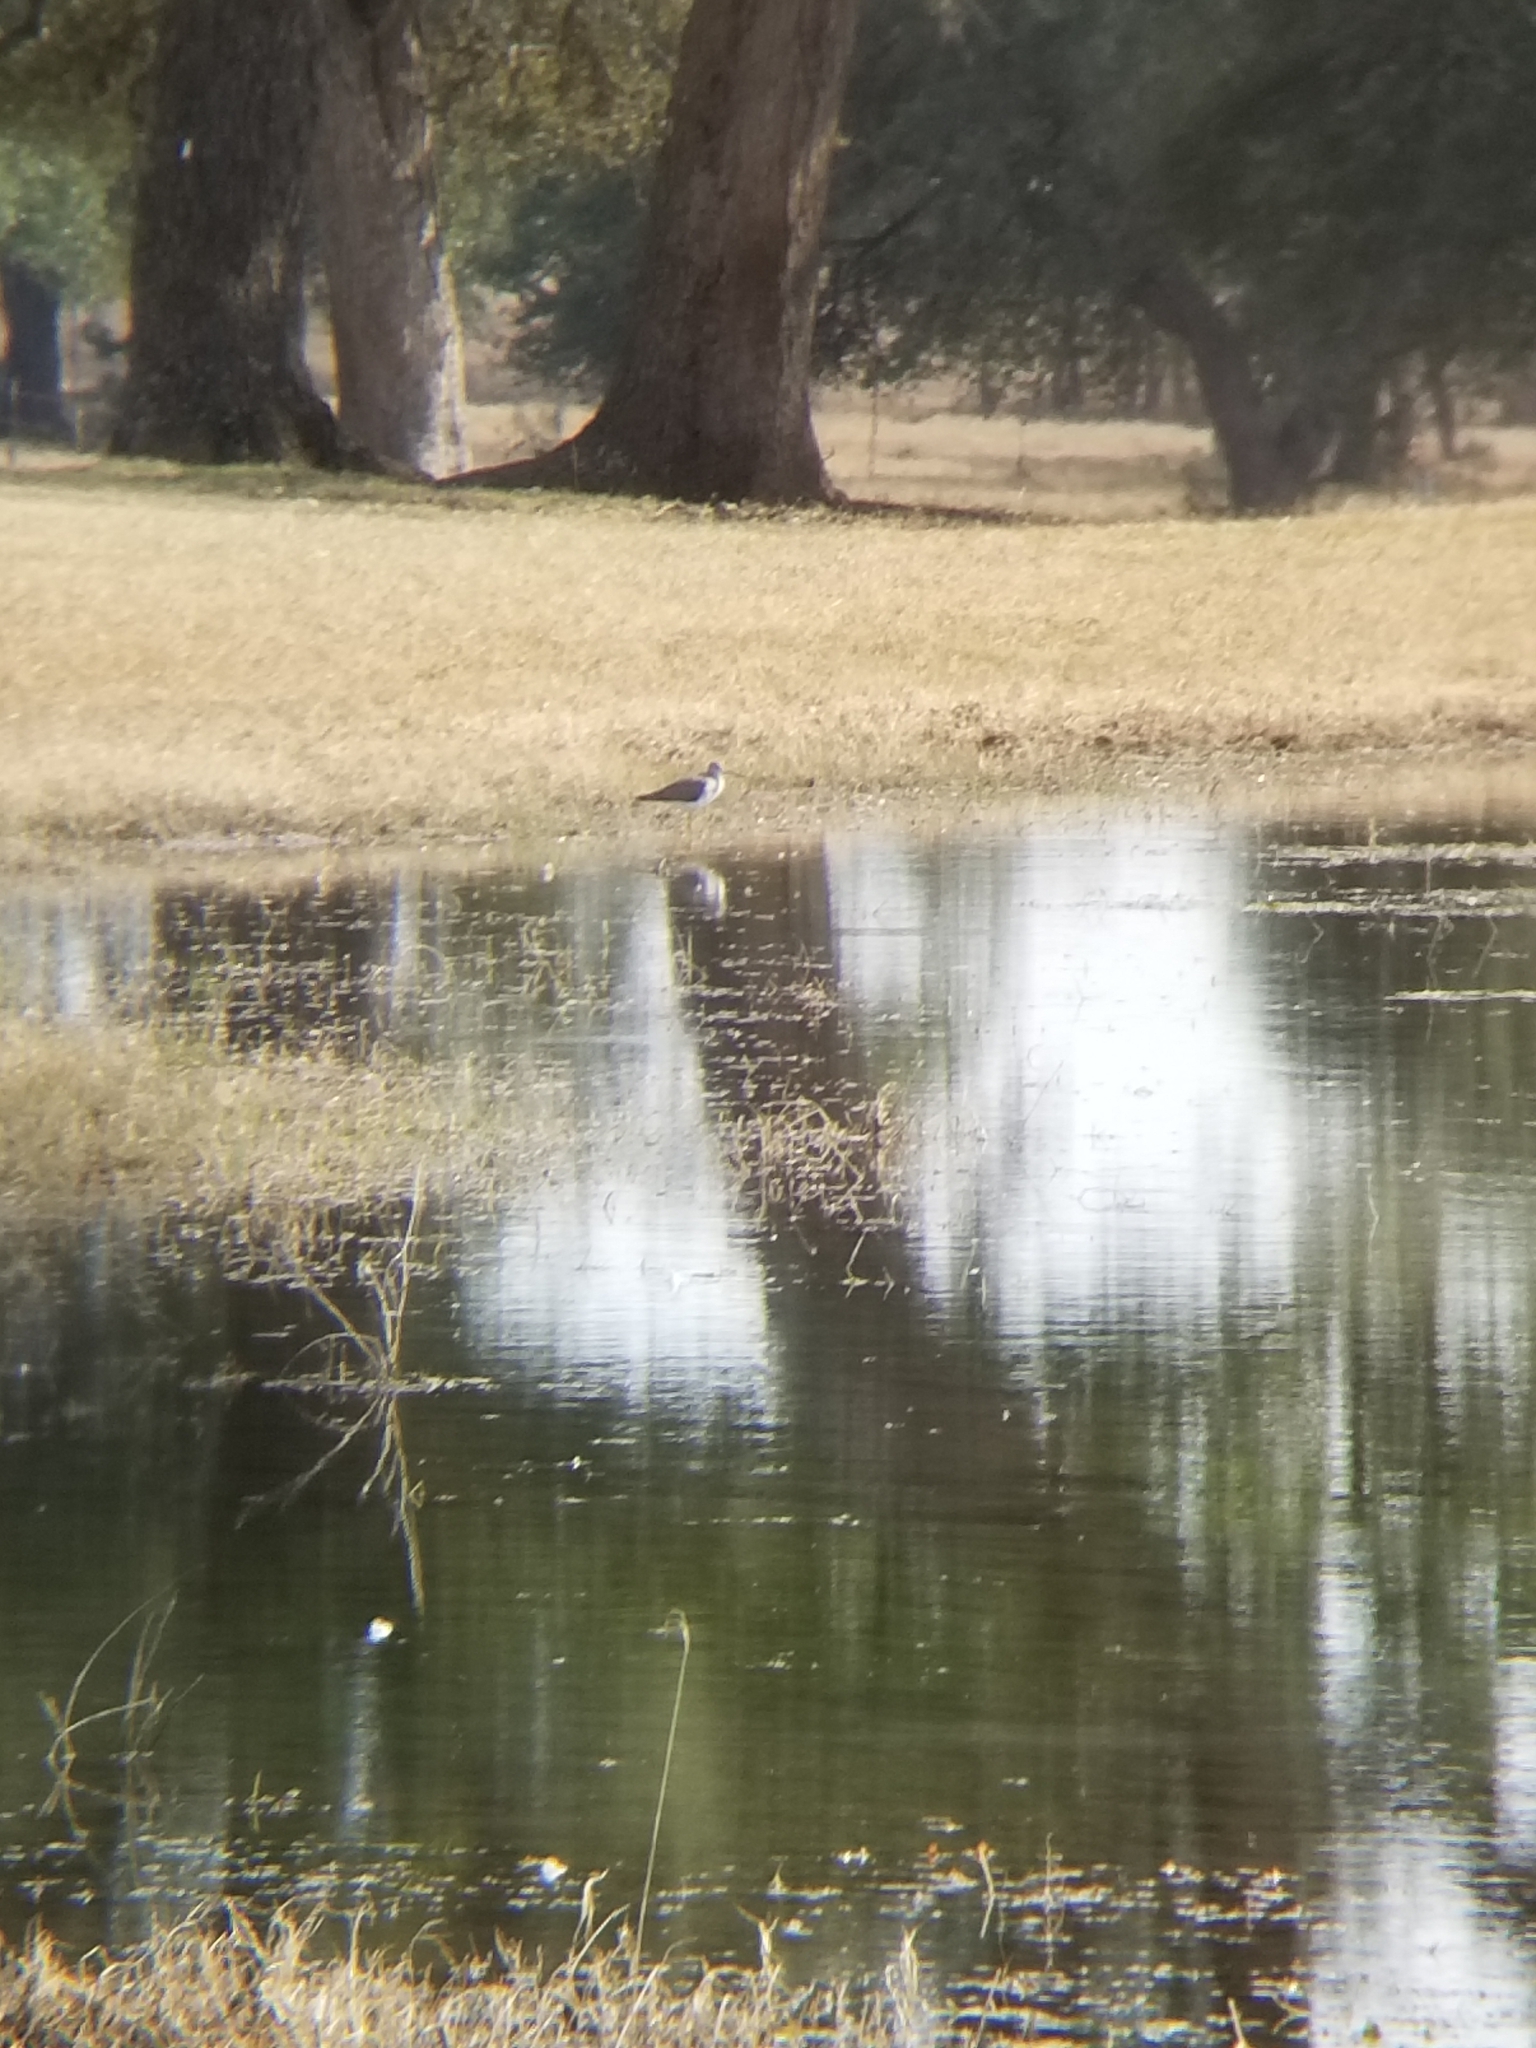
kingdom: Animalia
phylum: Chordata
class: Aves
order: Charadriiformes
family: Scolopacidae
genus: Tringa
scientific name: Tringa melanoleuca
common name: Greater yellowlegs
